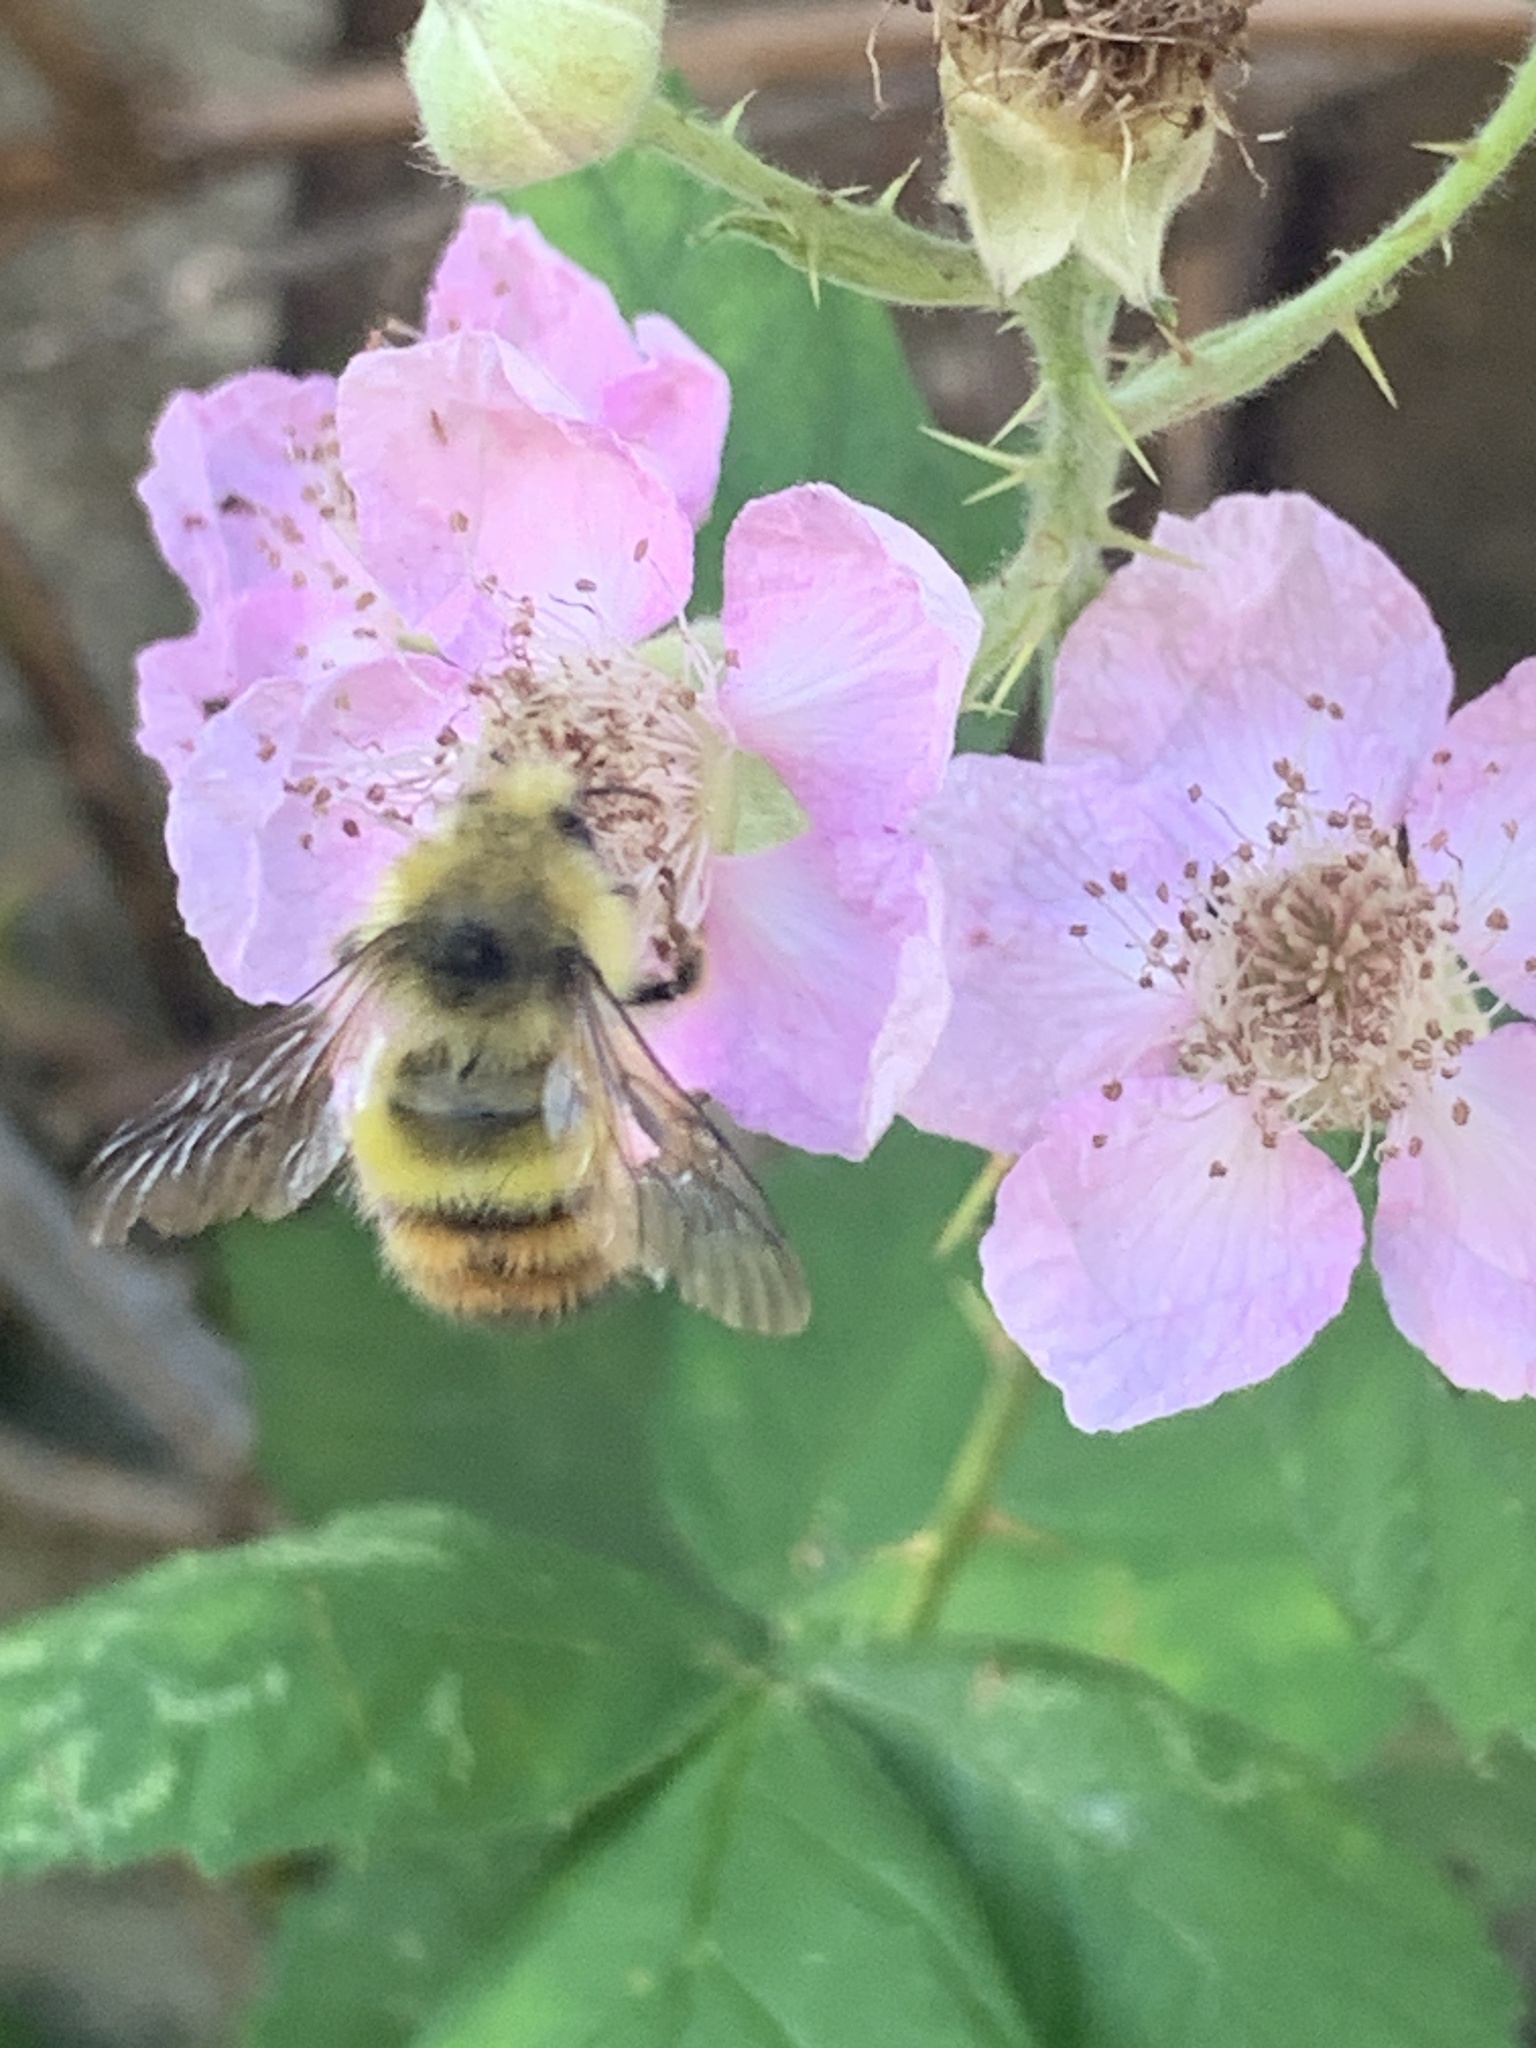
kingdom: Animalia
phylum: Arthropoda
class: Insecta
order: Hymenoptera
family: Apidae
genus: Bombus
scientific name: Bombus flavifrons
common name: Yellow head bumble bee
